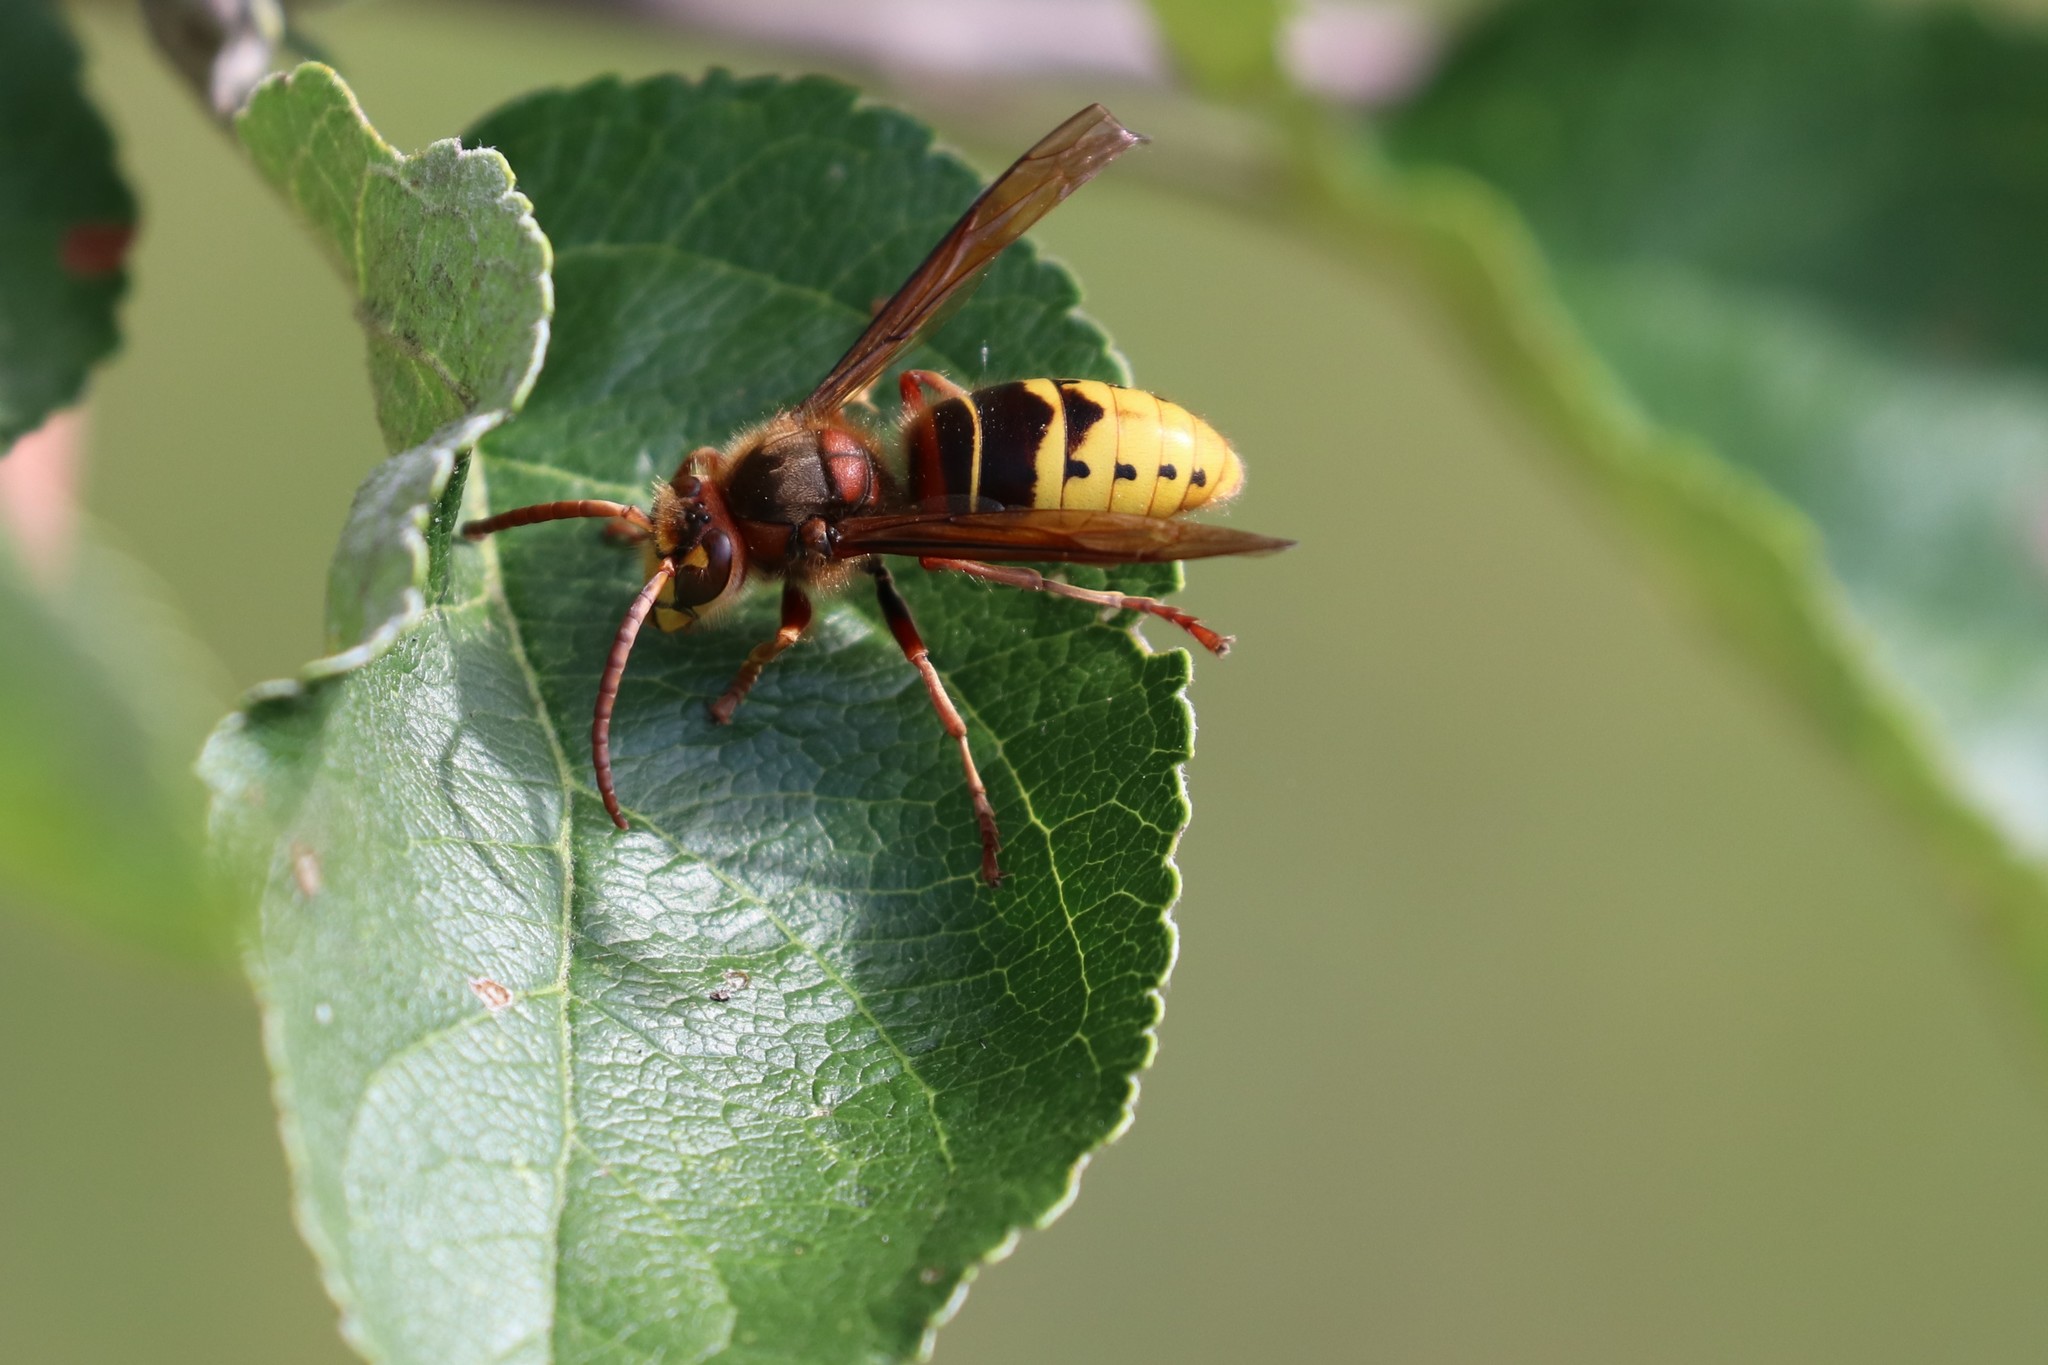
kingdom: Animalia
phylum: Arthropoda
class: Insecta
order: Hymenoptera
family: Vespidae
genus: Vespa
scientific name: Vespa crabro
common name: Hornet
